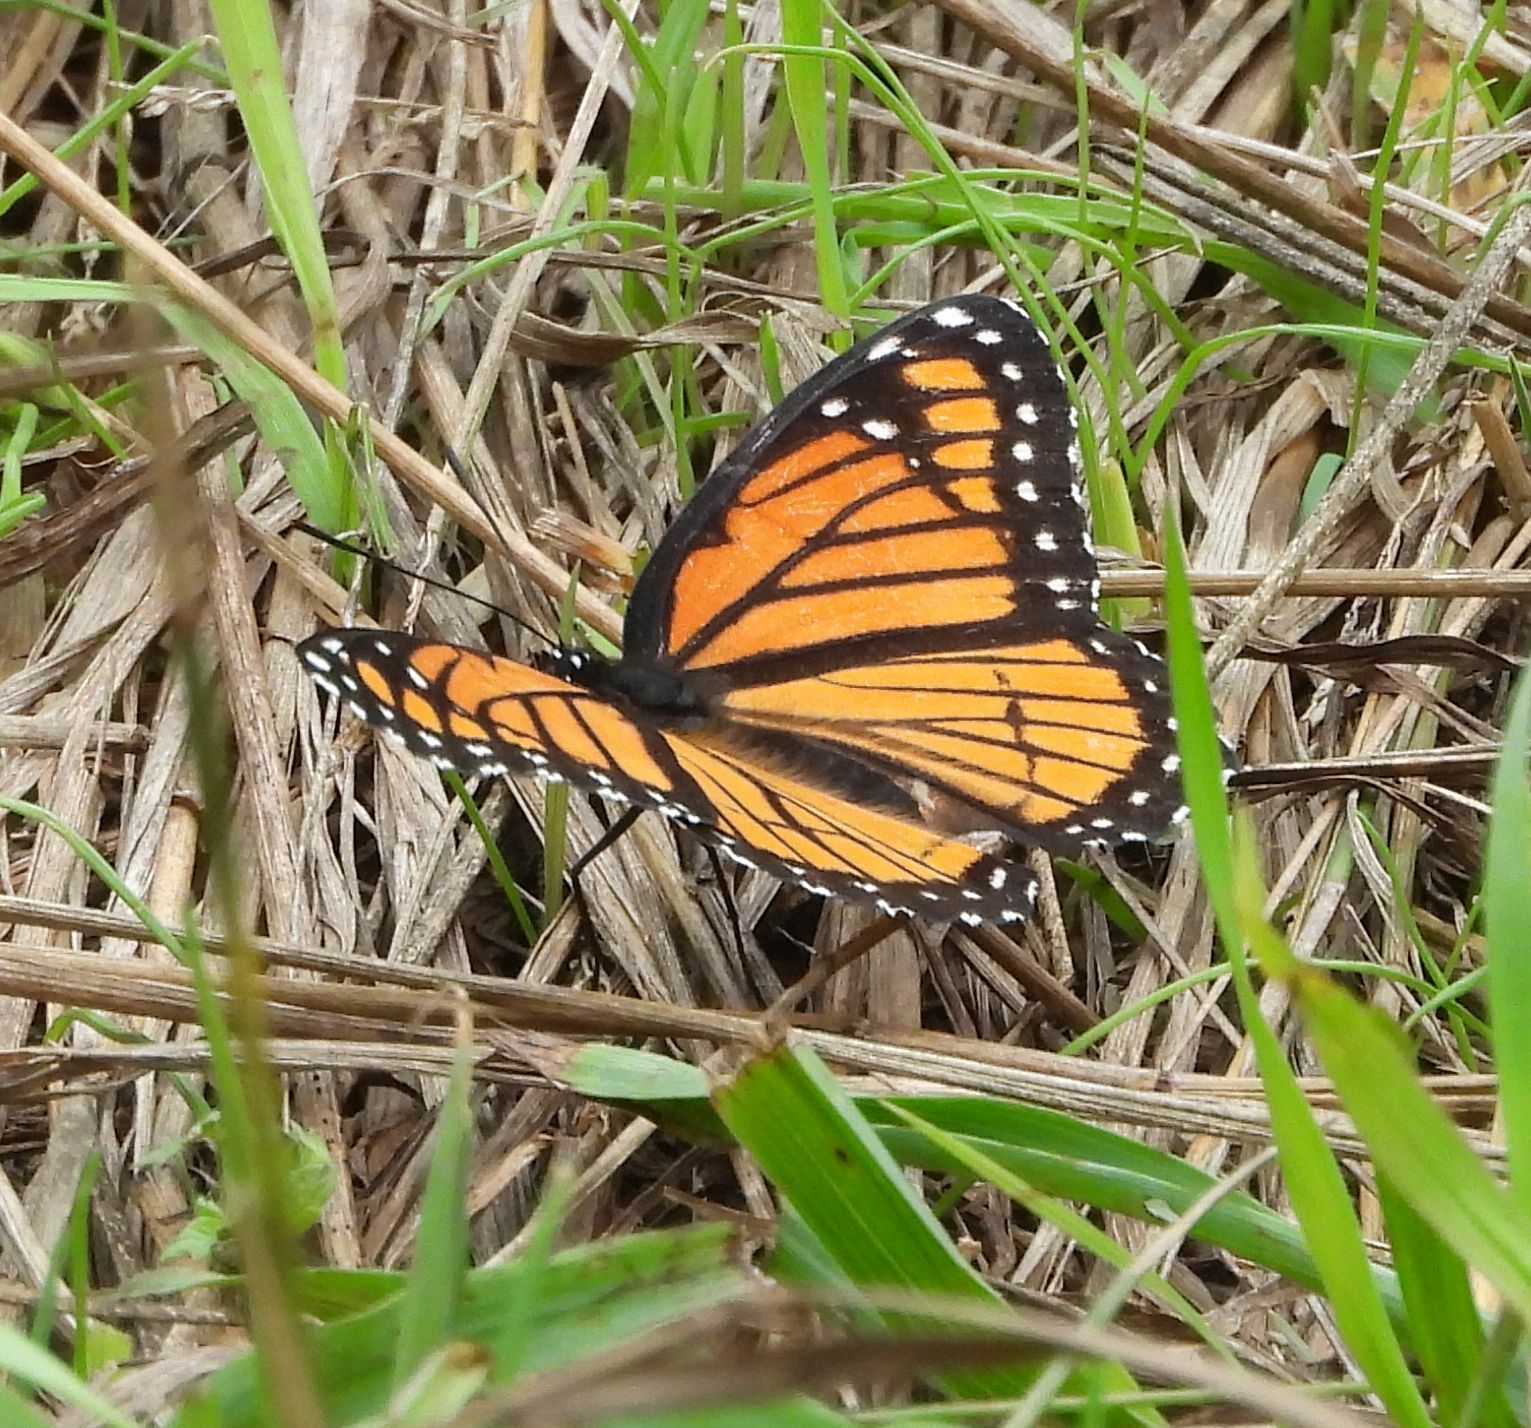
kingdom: Animalia
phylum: Arthropoda
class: Insecta
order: Lepidoptera
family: Nymphalidae
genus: Limenitis
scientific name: Limenitis archippus
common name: Viceroy
